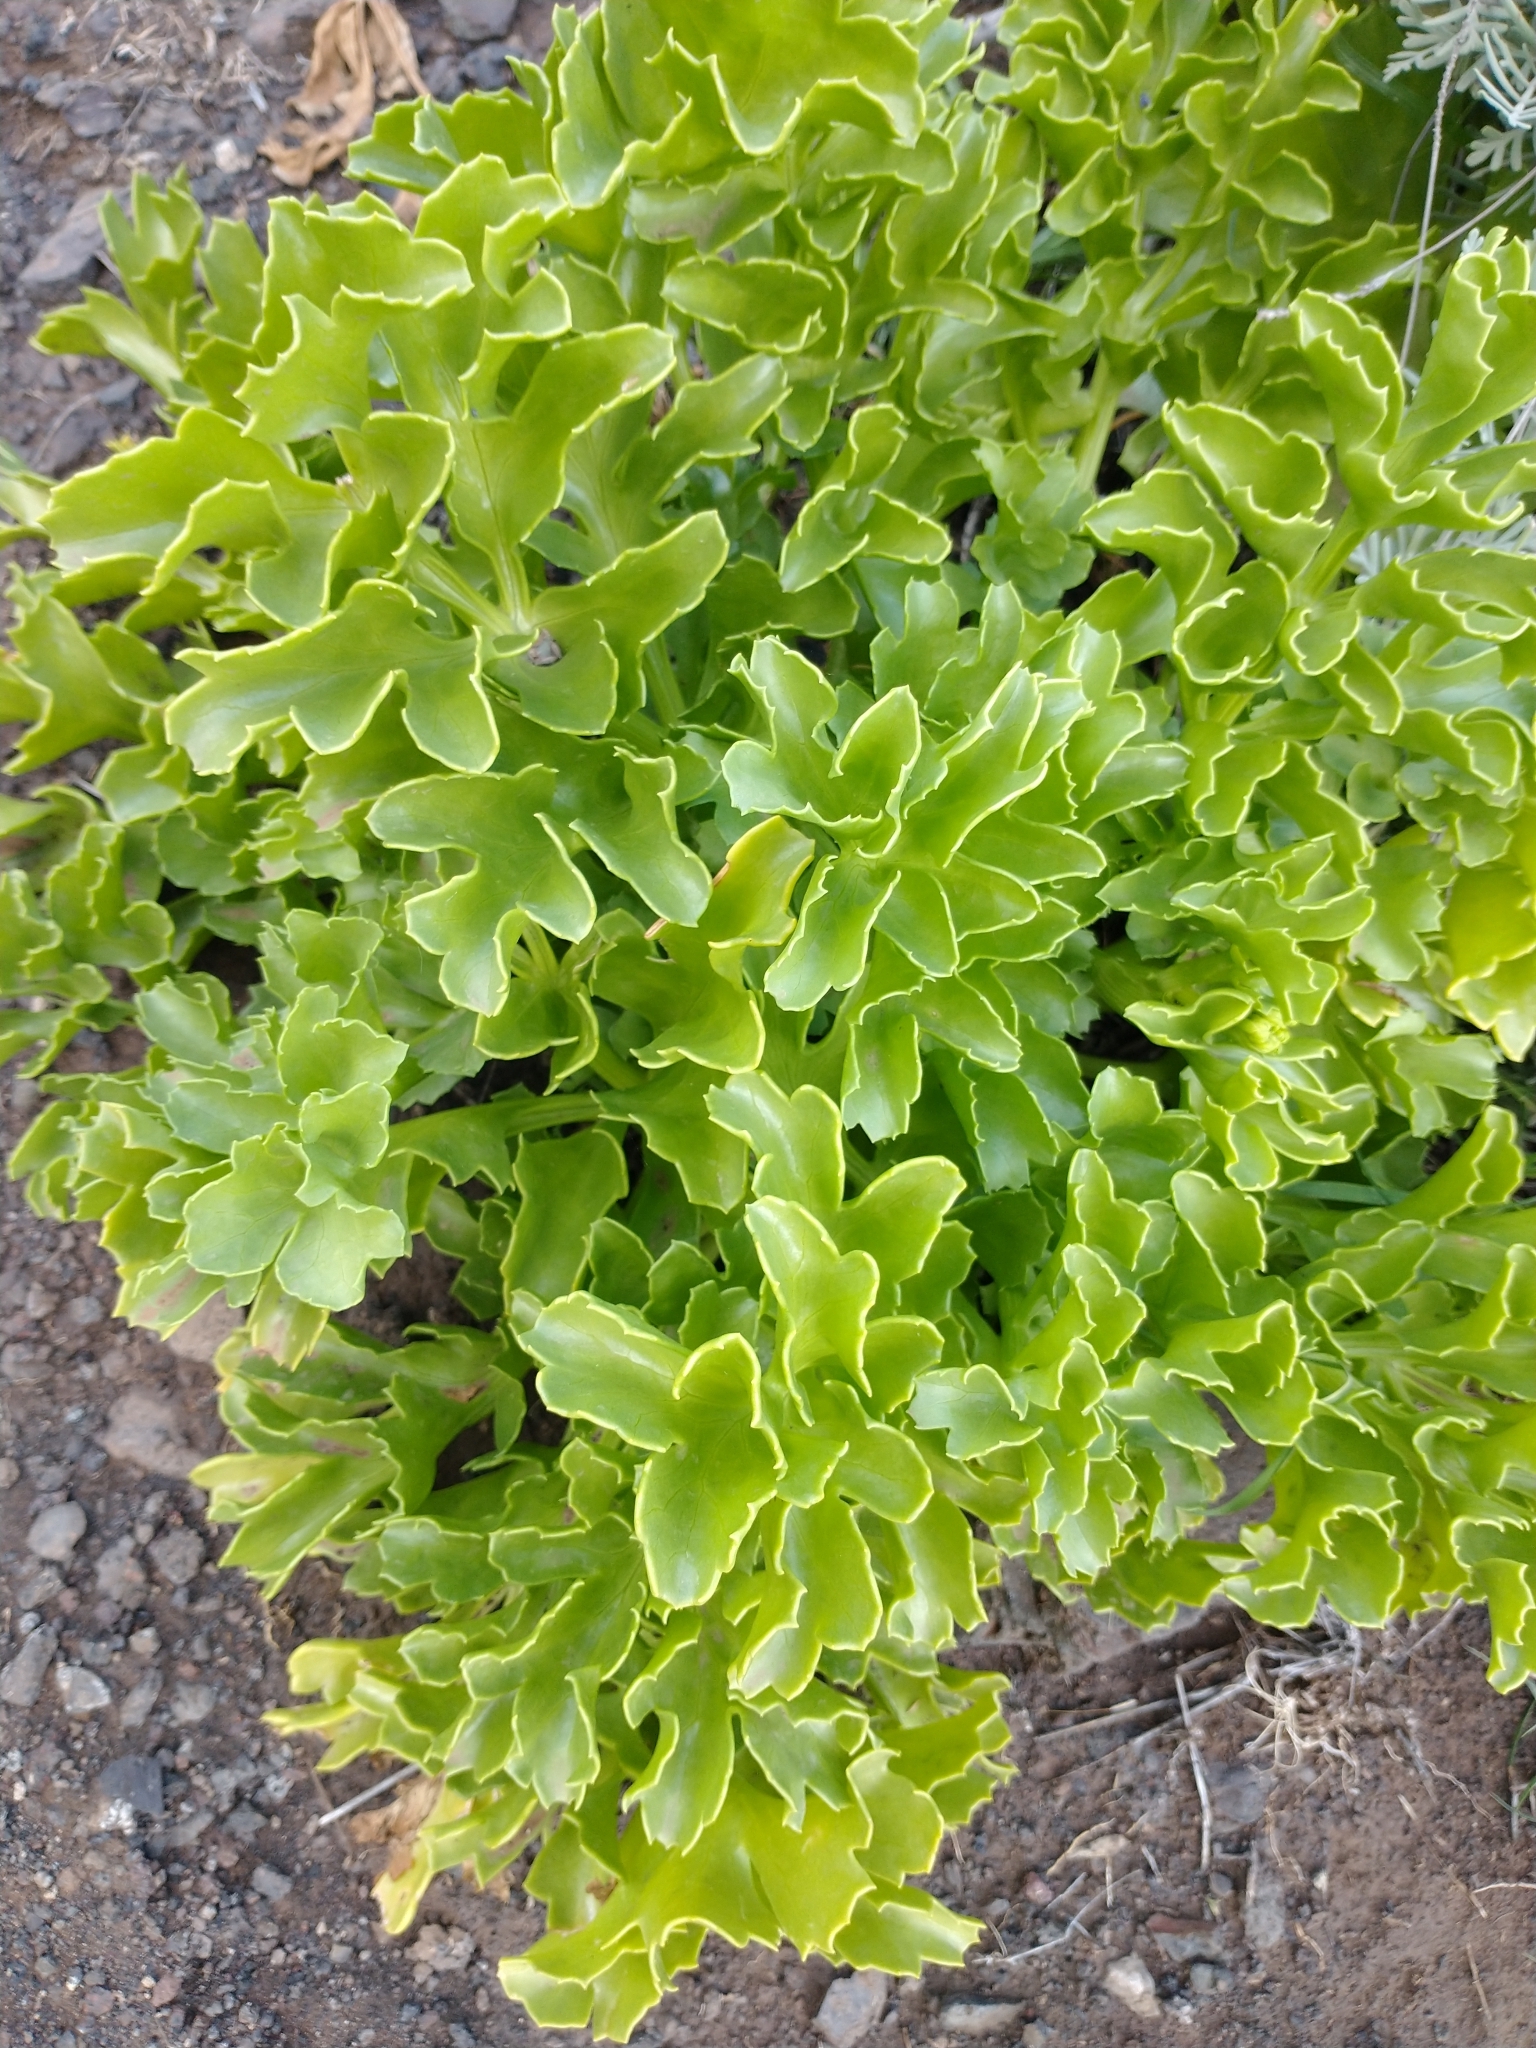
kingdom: Plantae
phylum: Tracheophyta
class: Magnoliopsida
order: Apiales
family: Apiaceae
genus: Astydamia
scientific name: Astydamia latifolia
